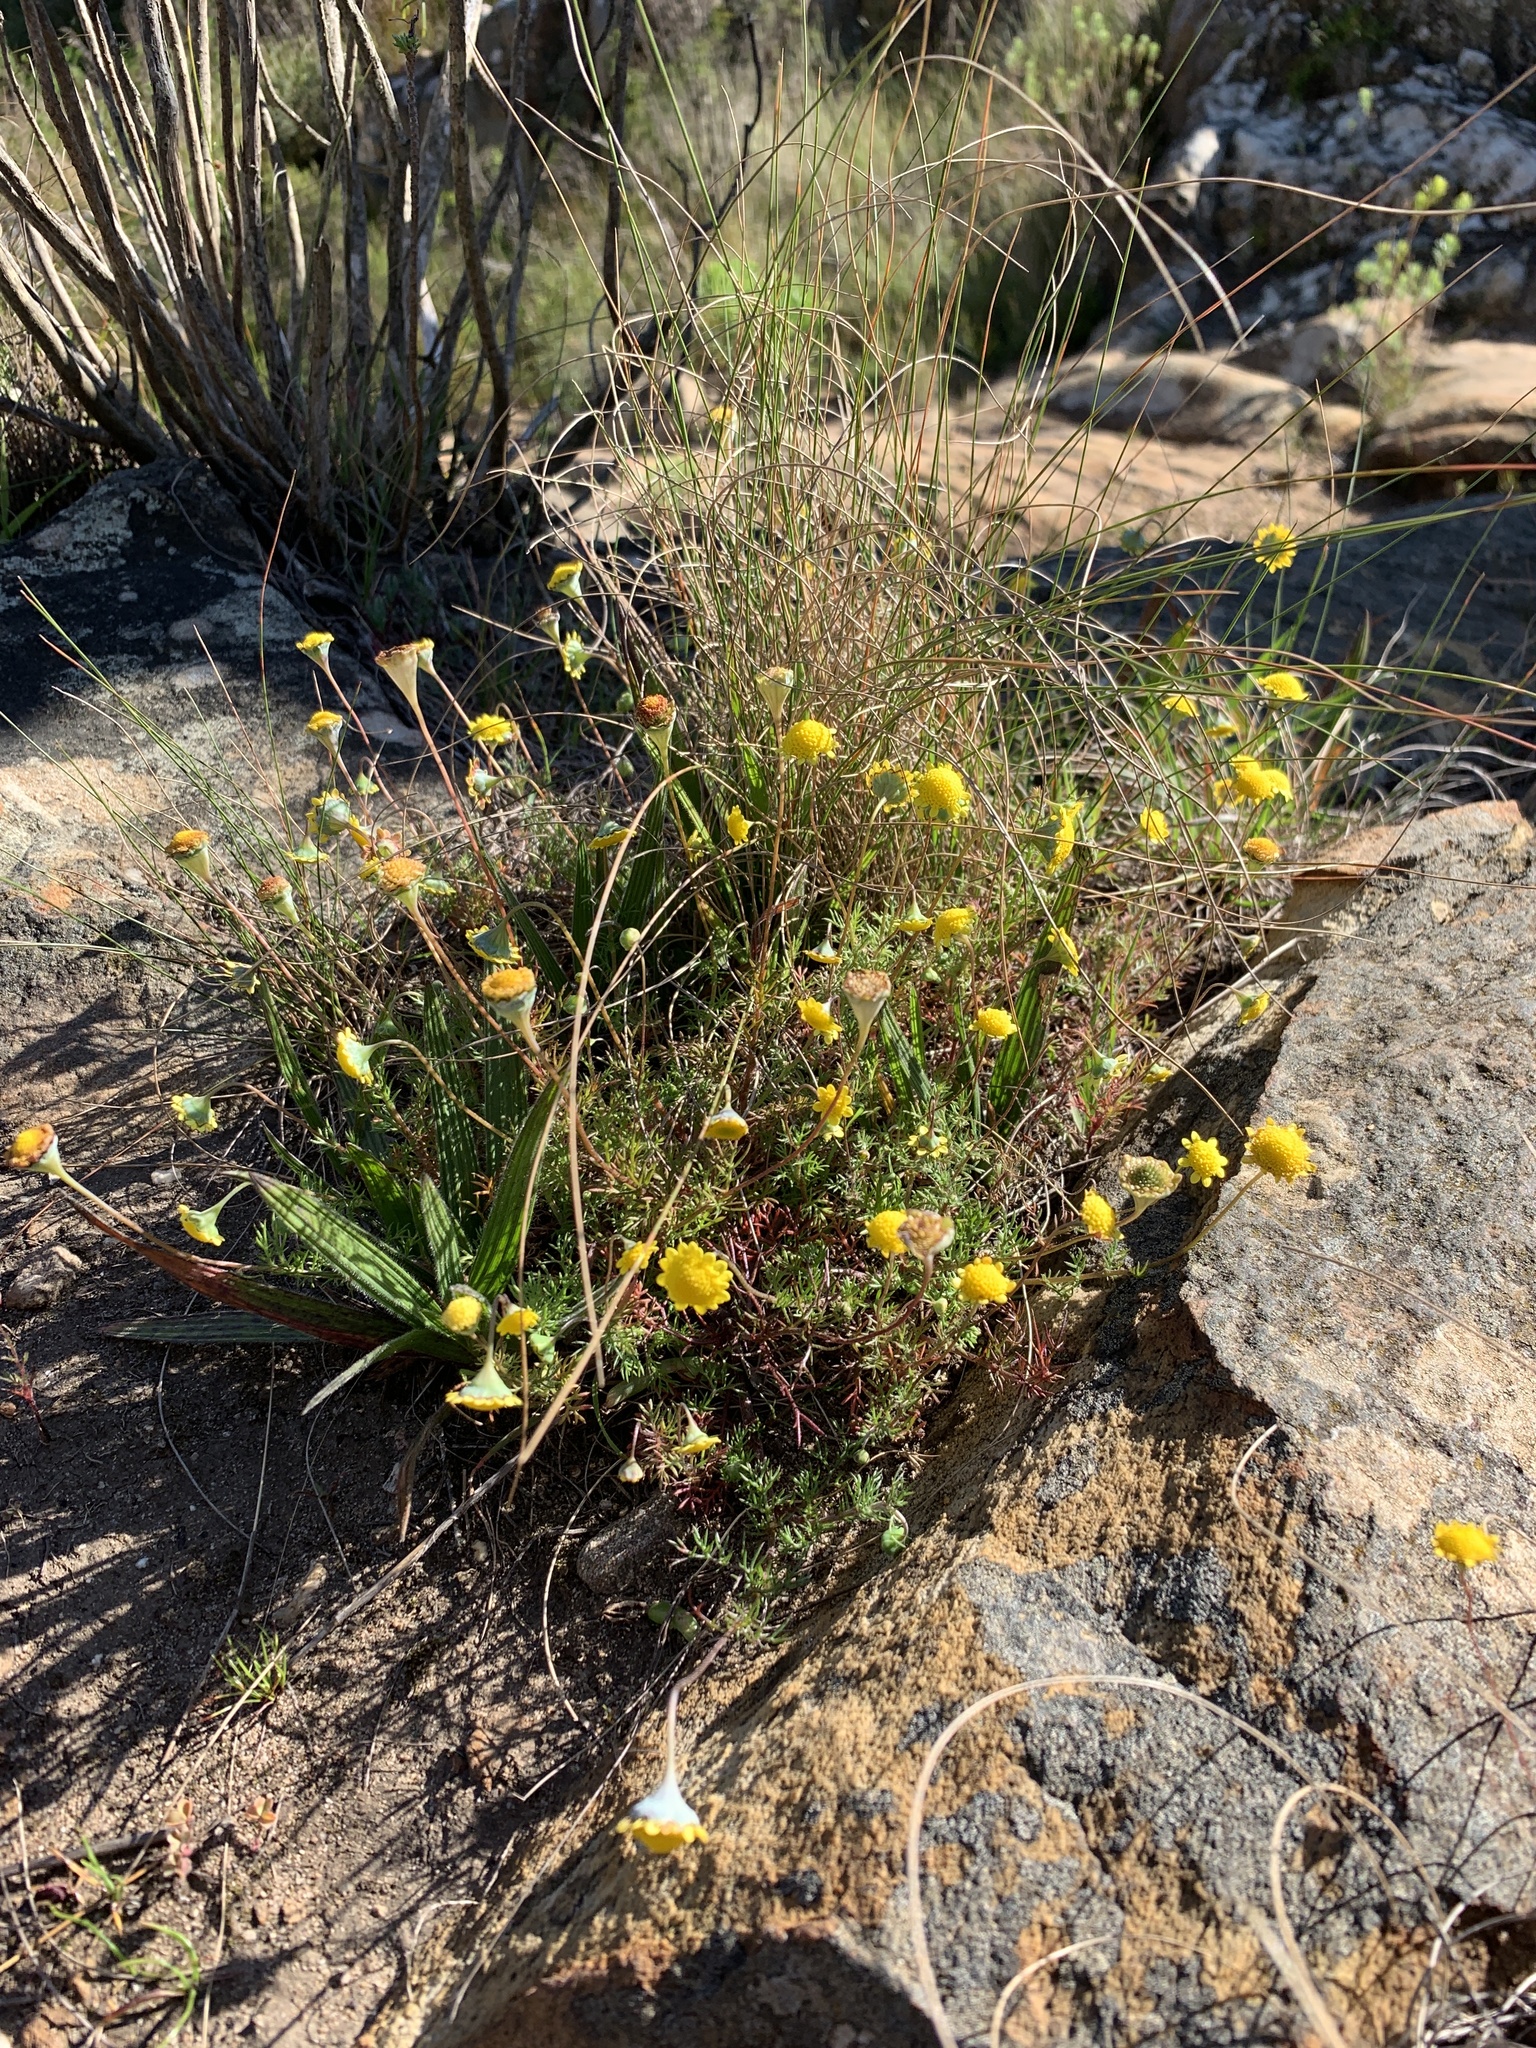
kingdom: Plantae
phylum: Tracheophyta
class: Magnoliopsida
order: Asterales
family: Asteraceae
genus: Cotula
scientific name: Cotula pruinosa
